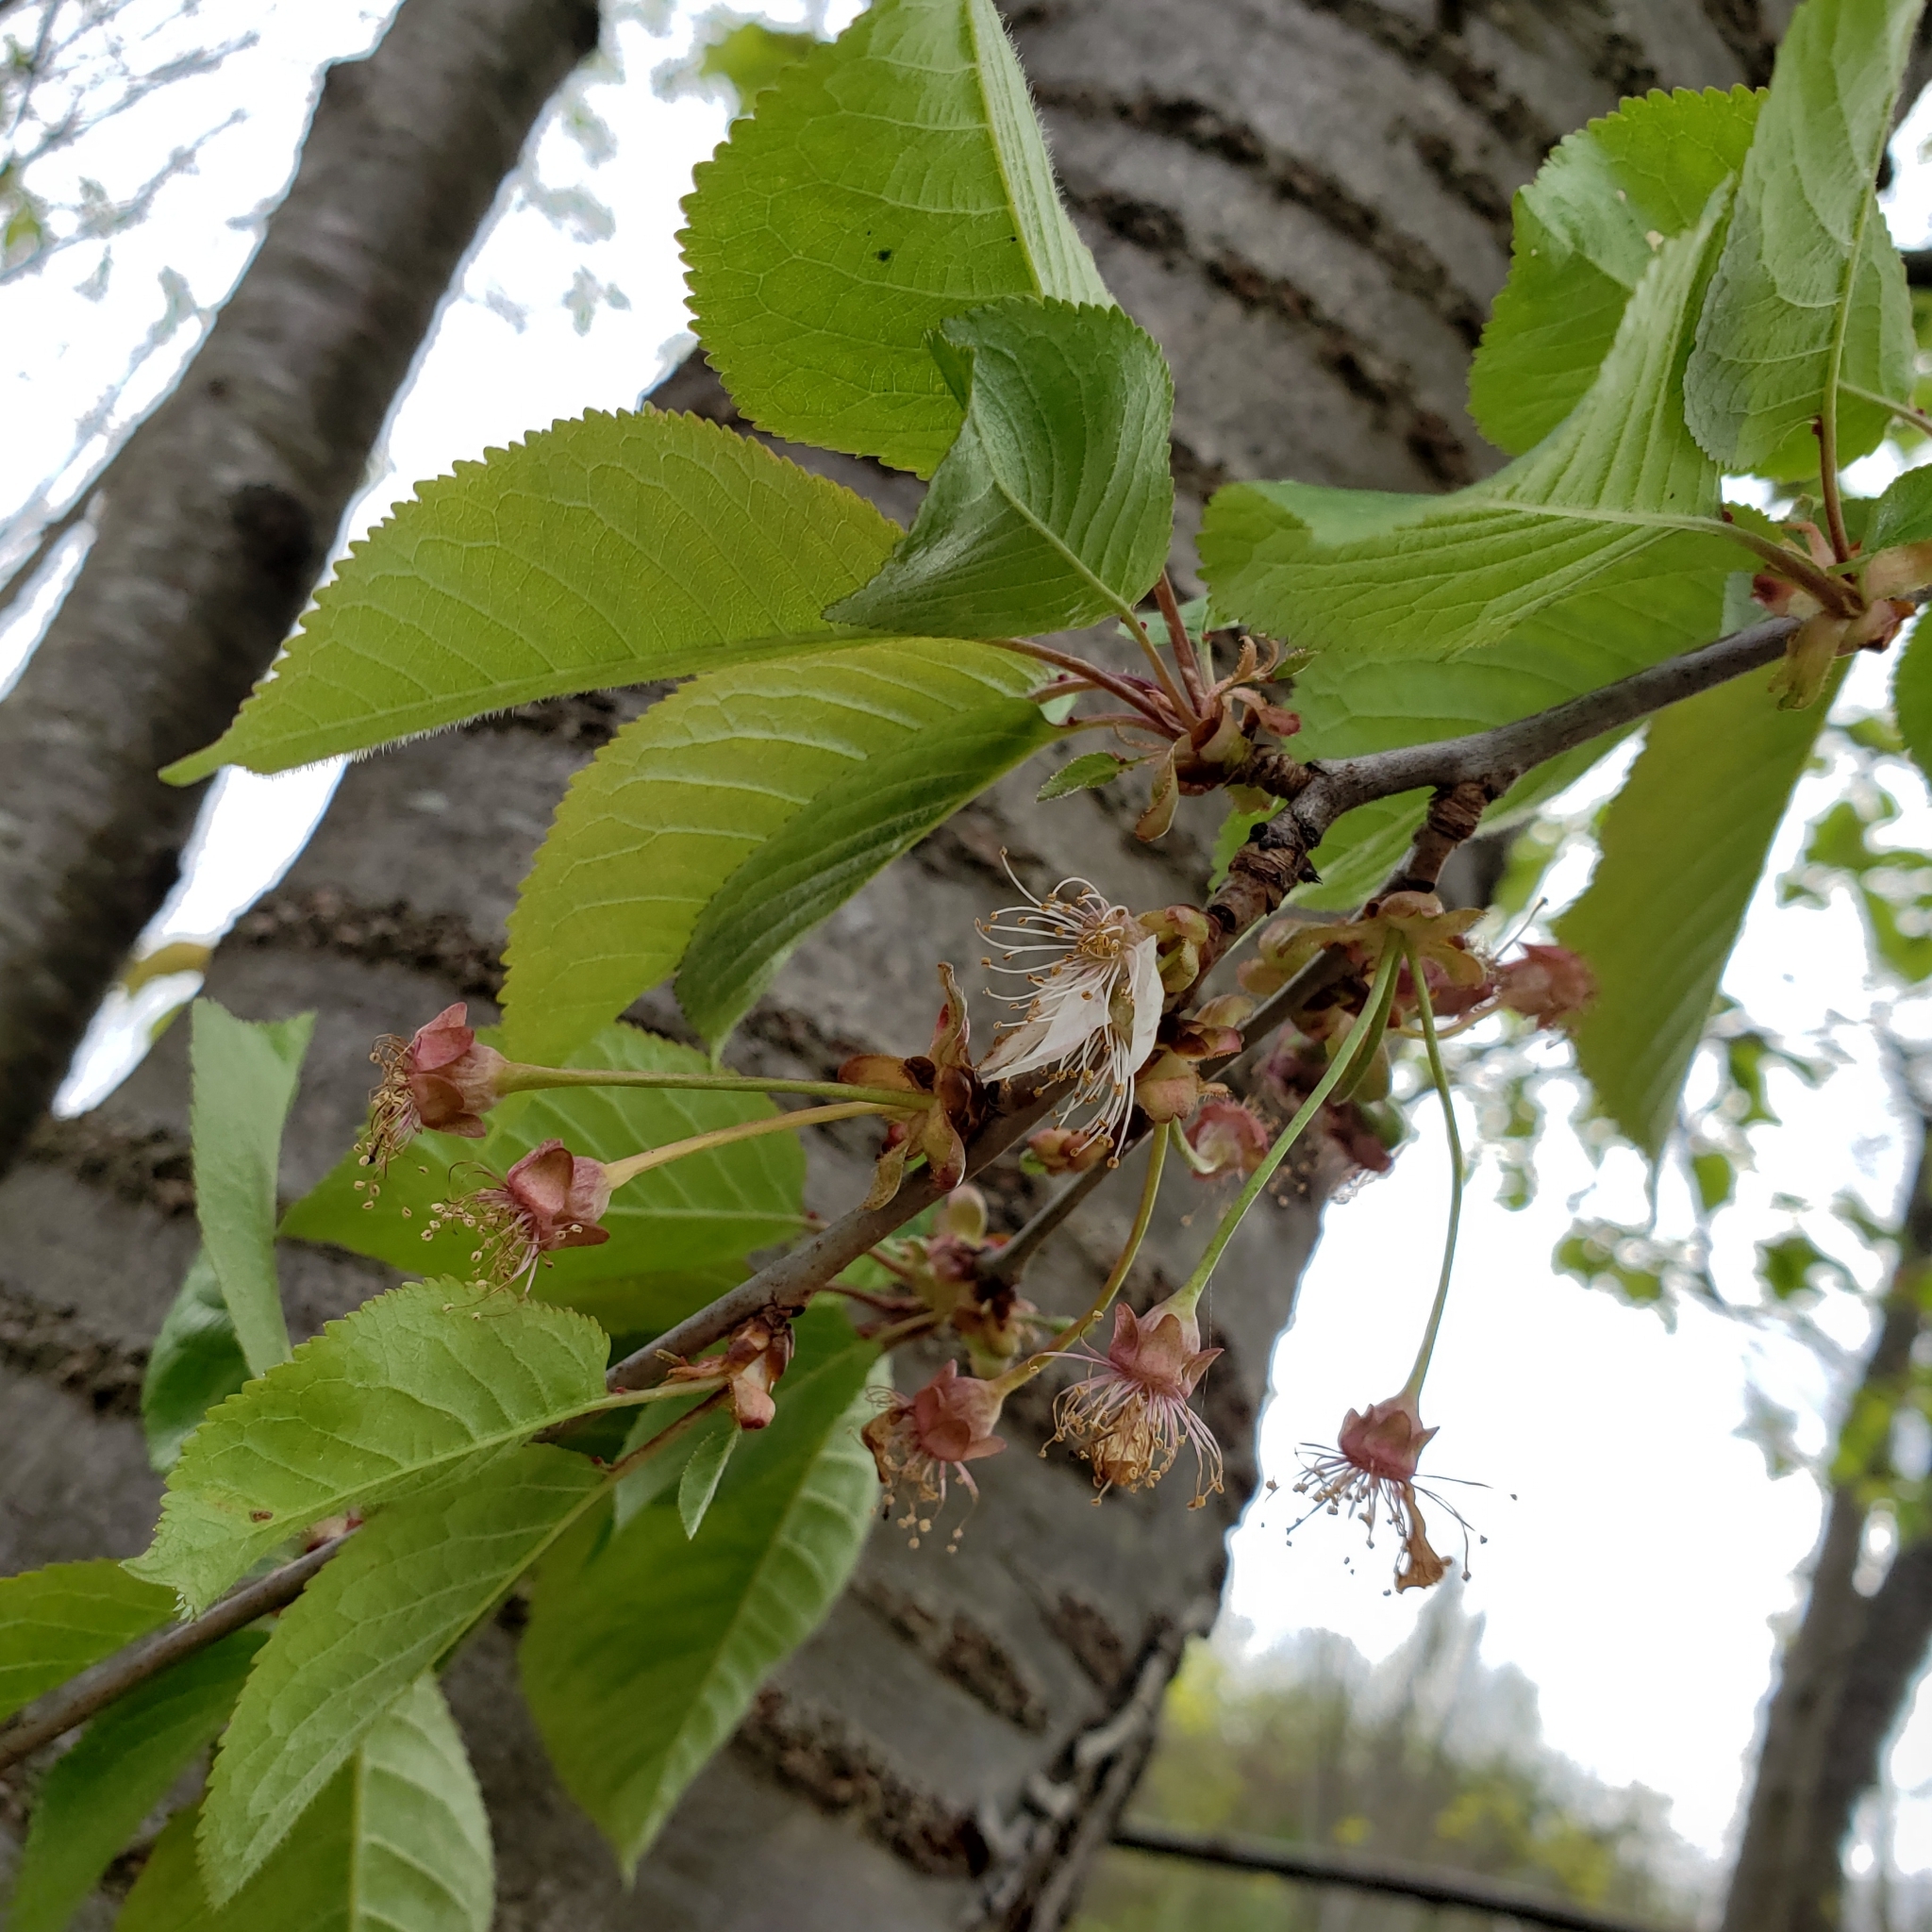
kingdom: Plantae
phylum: Tracheophyta
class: Magnoliopsida
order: Rosales
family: Rosaceae
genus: Prunus
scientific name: Prunus avium
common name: Sweet cherry
